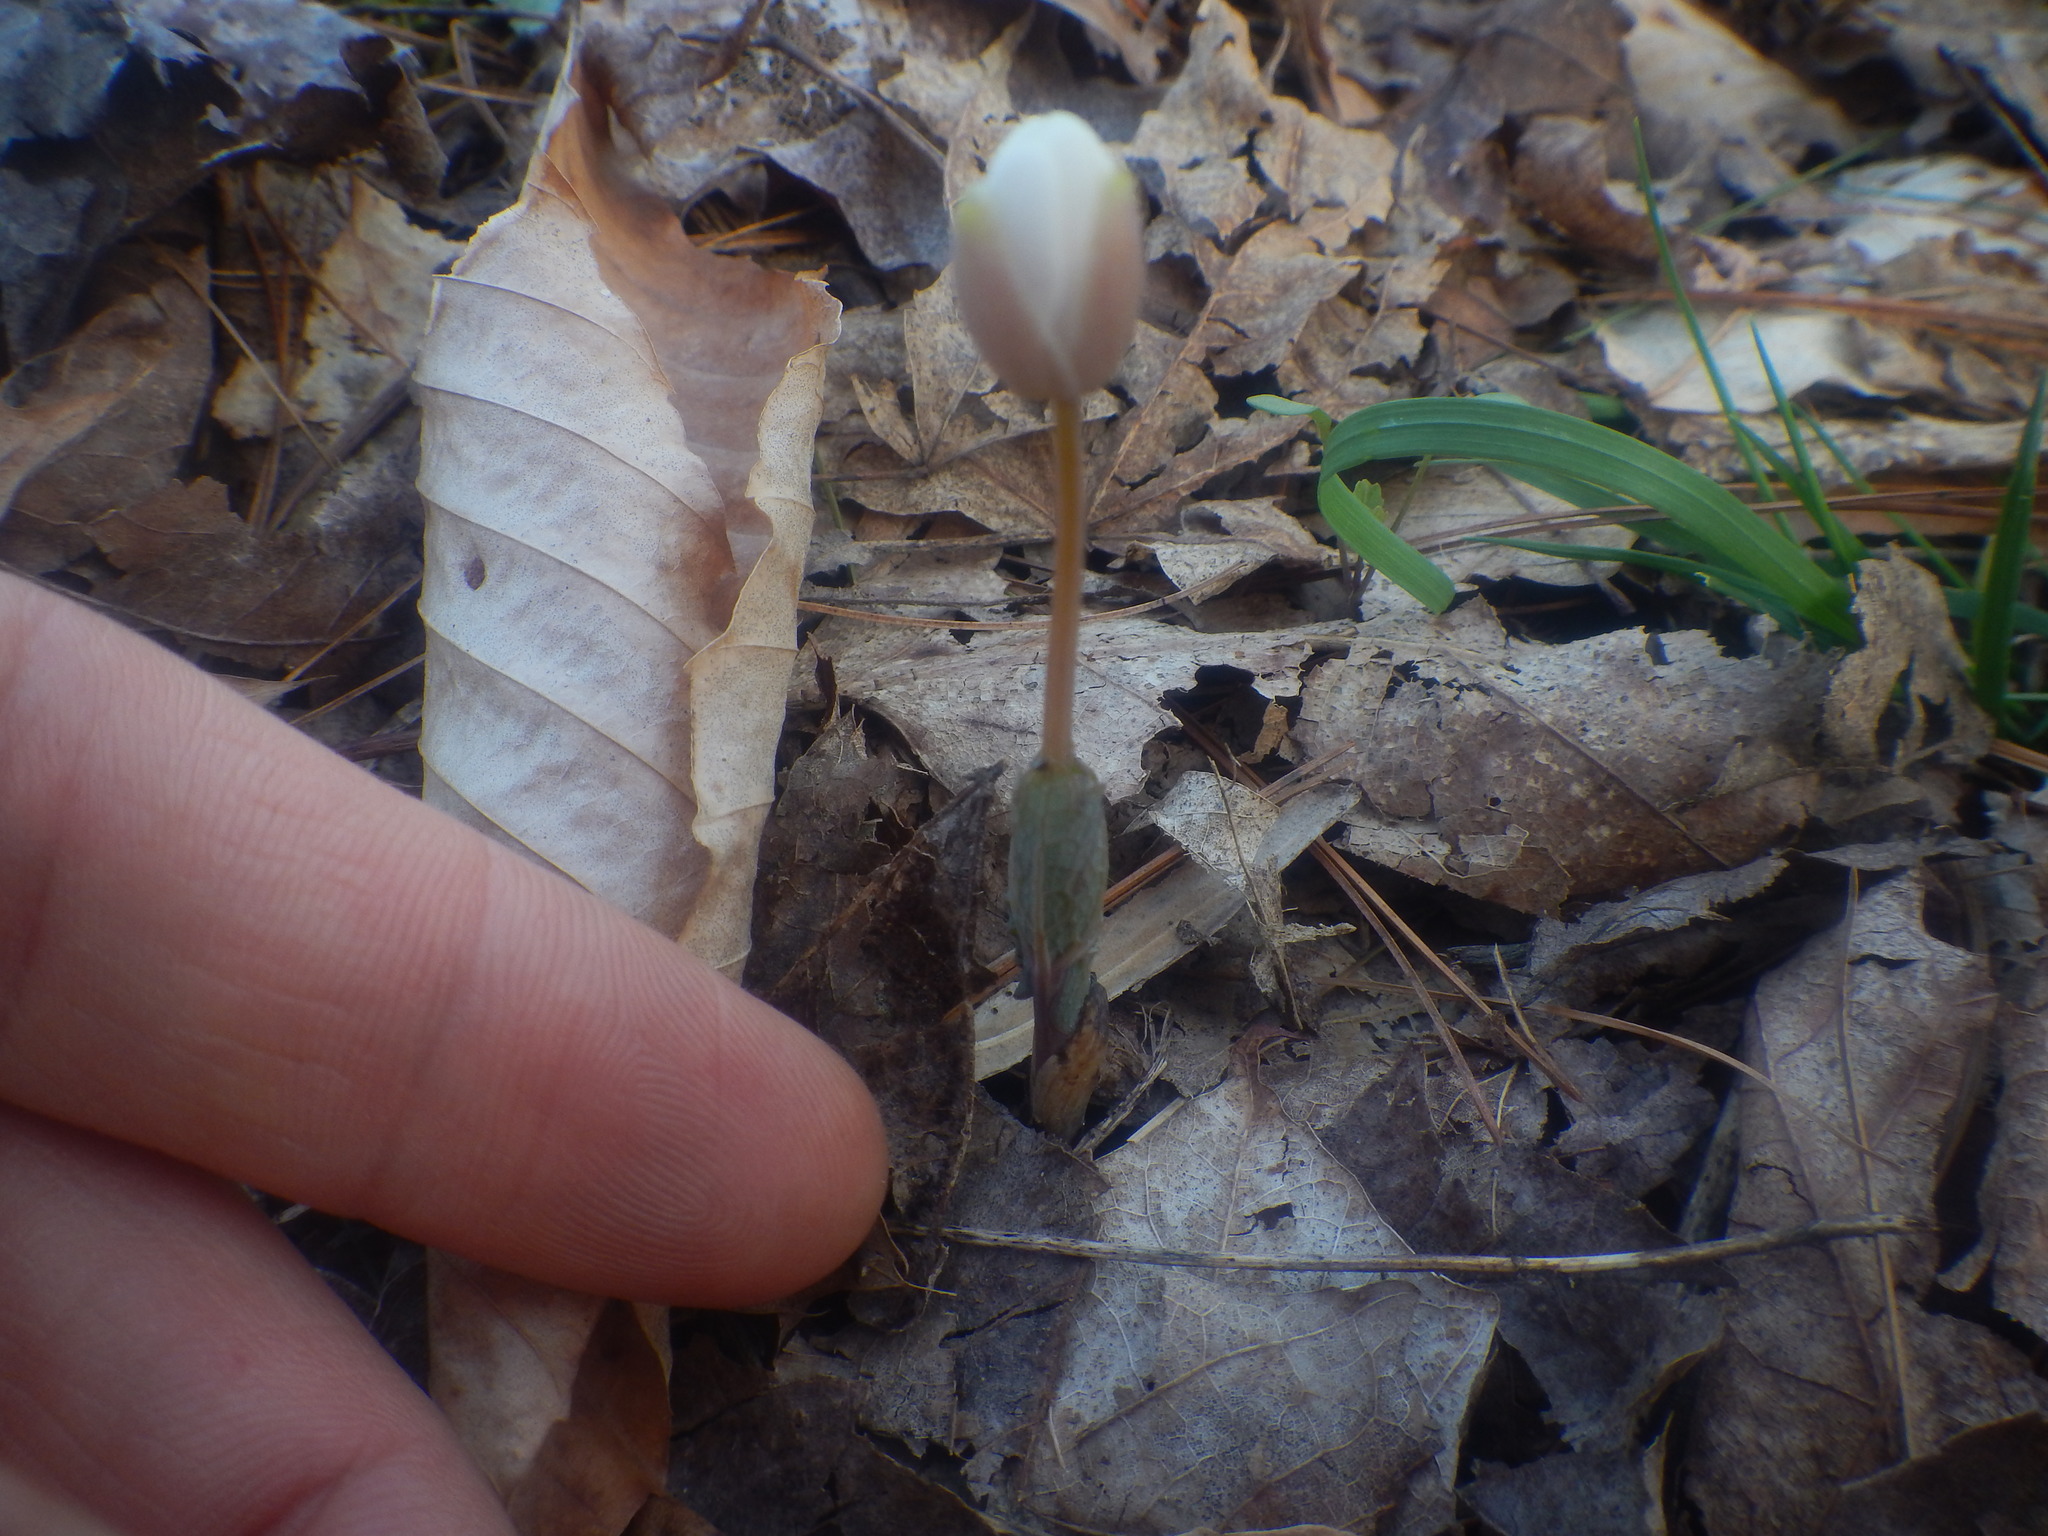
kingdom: Plantae
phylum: Tracheophyta
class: Magnoliopsida
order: Ranunculales
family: Papaveraceae
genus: Sanguinaria
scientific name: Sanguinaria canadensis
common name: Bloodroot
